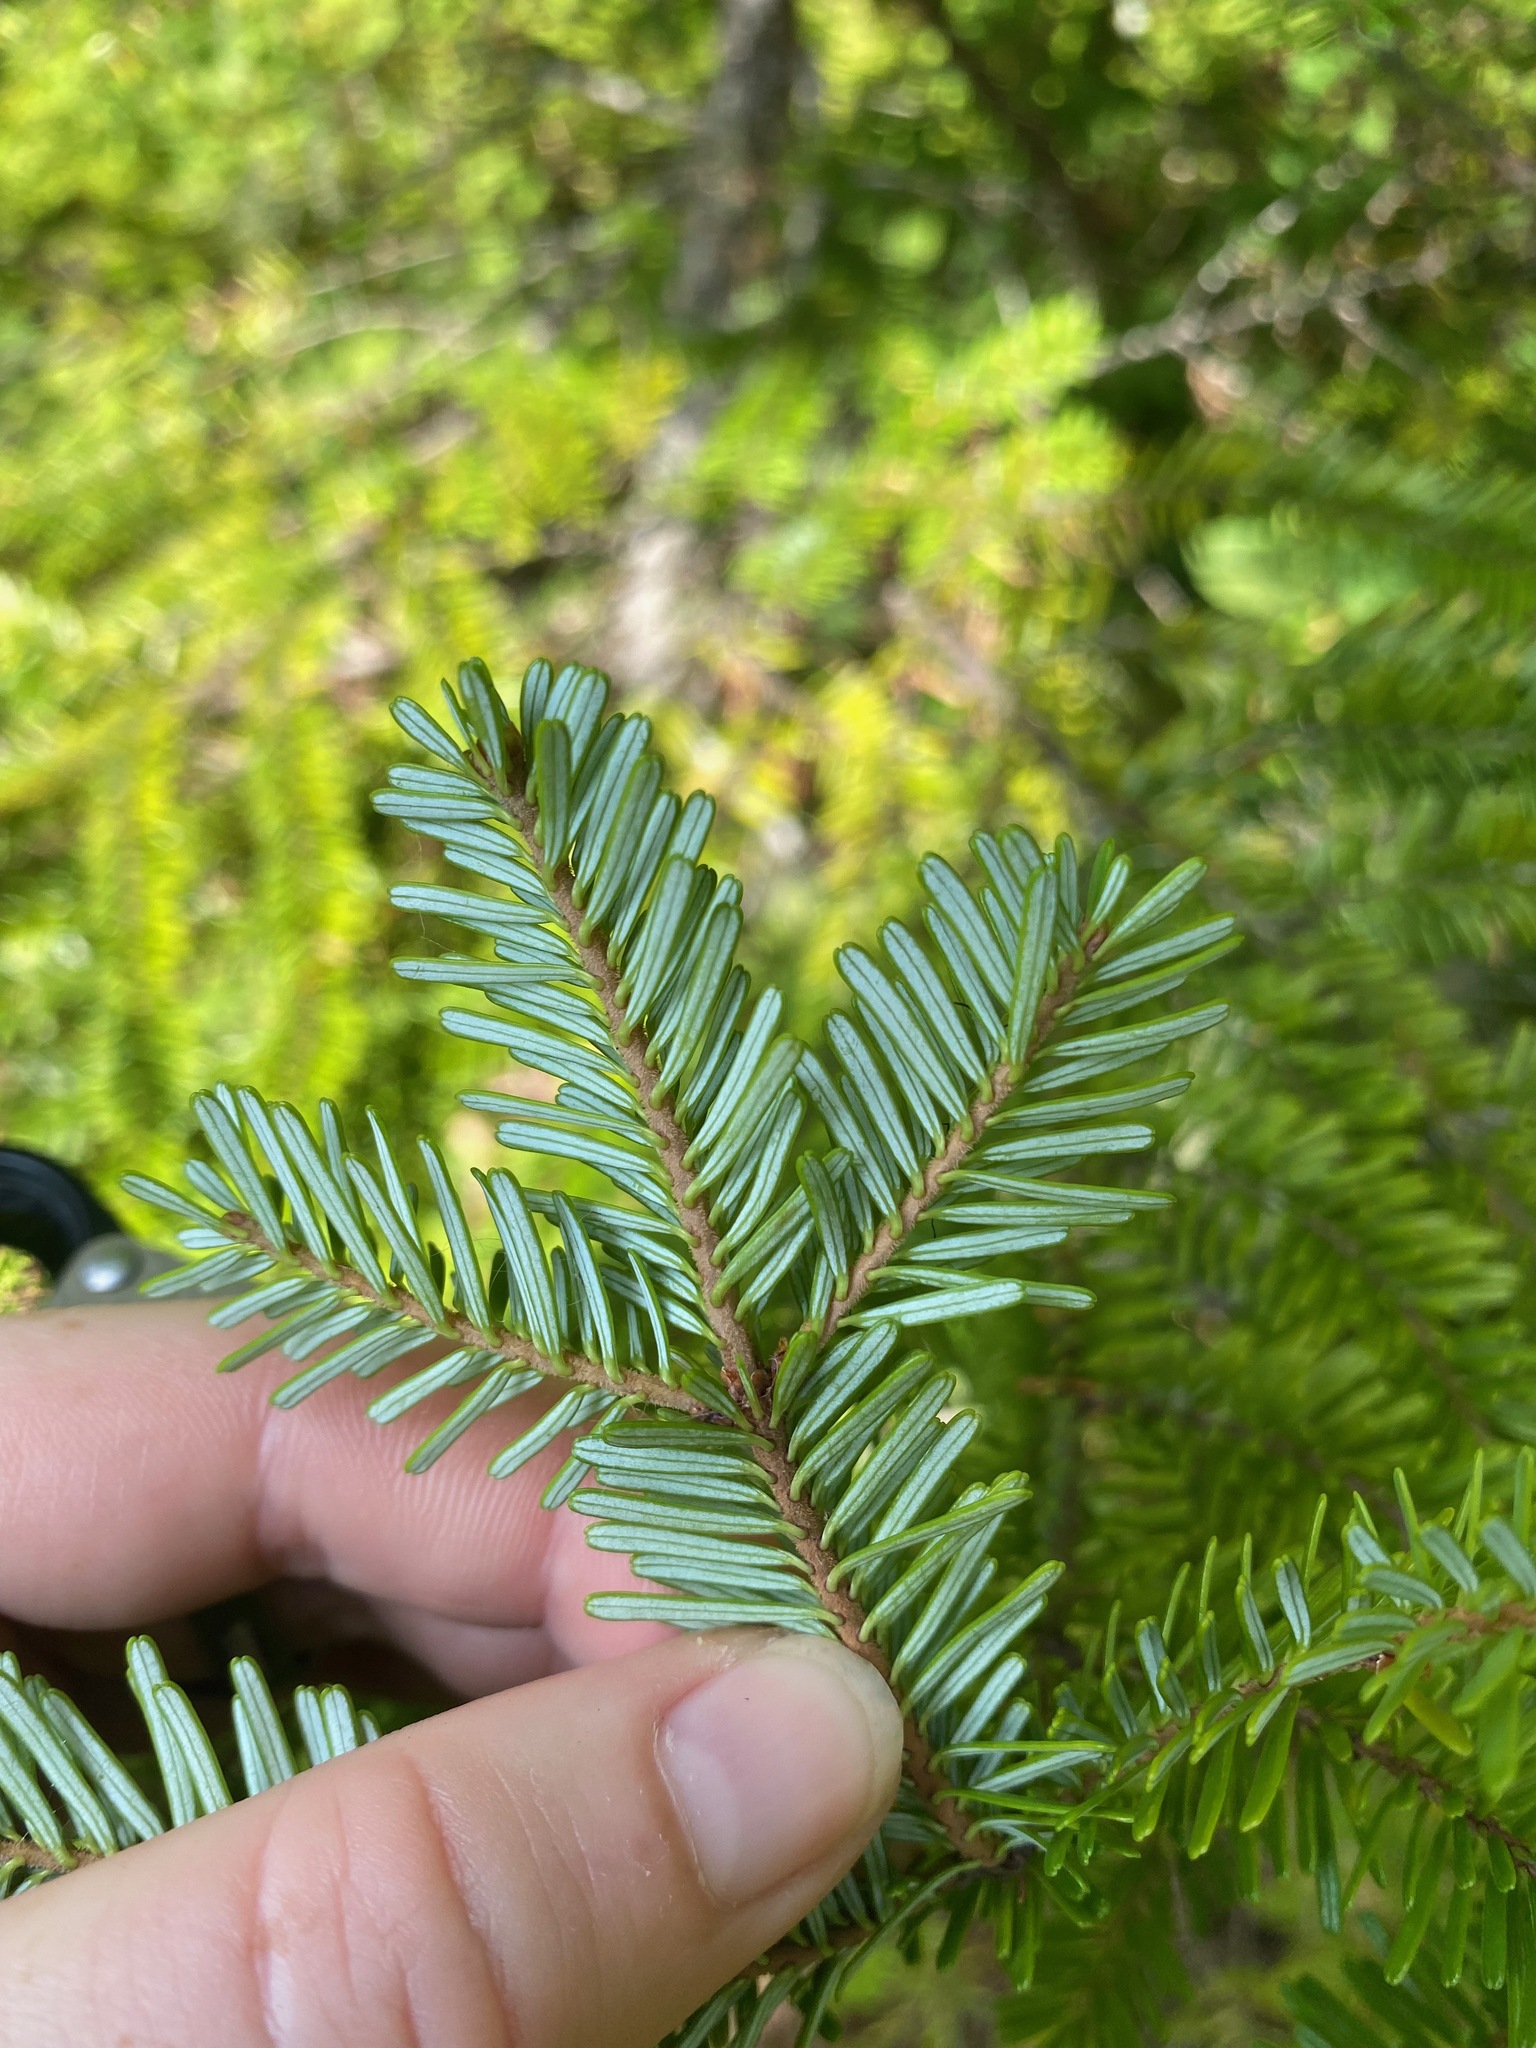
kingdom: Plantae
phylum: Tracheophyta
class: Pinopsida
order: Pinales
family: Pinaceae
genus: Abies
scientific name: Abies amabilis
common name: Pacific silver fir
